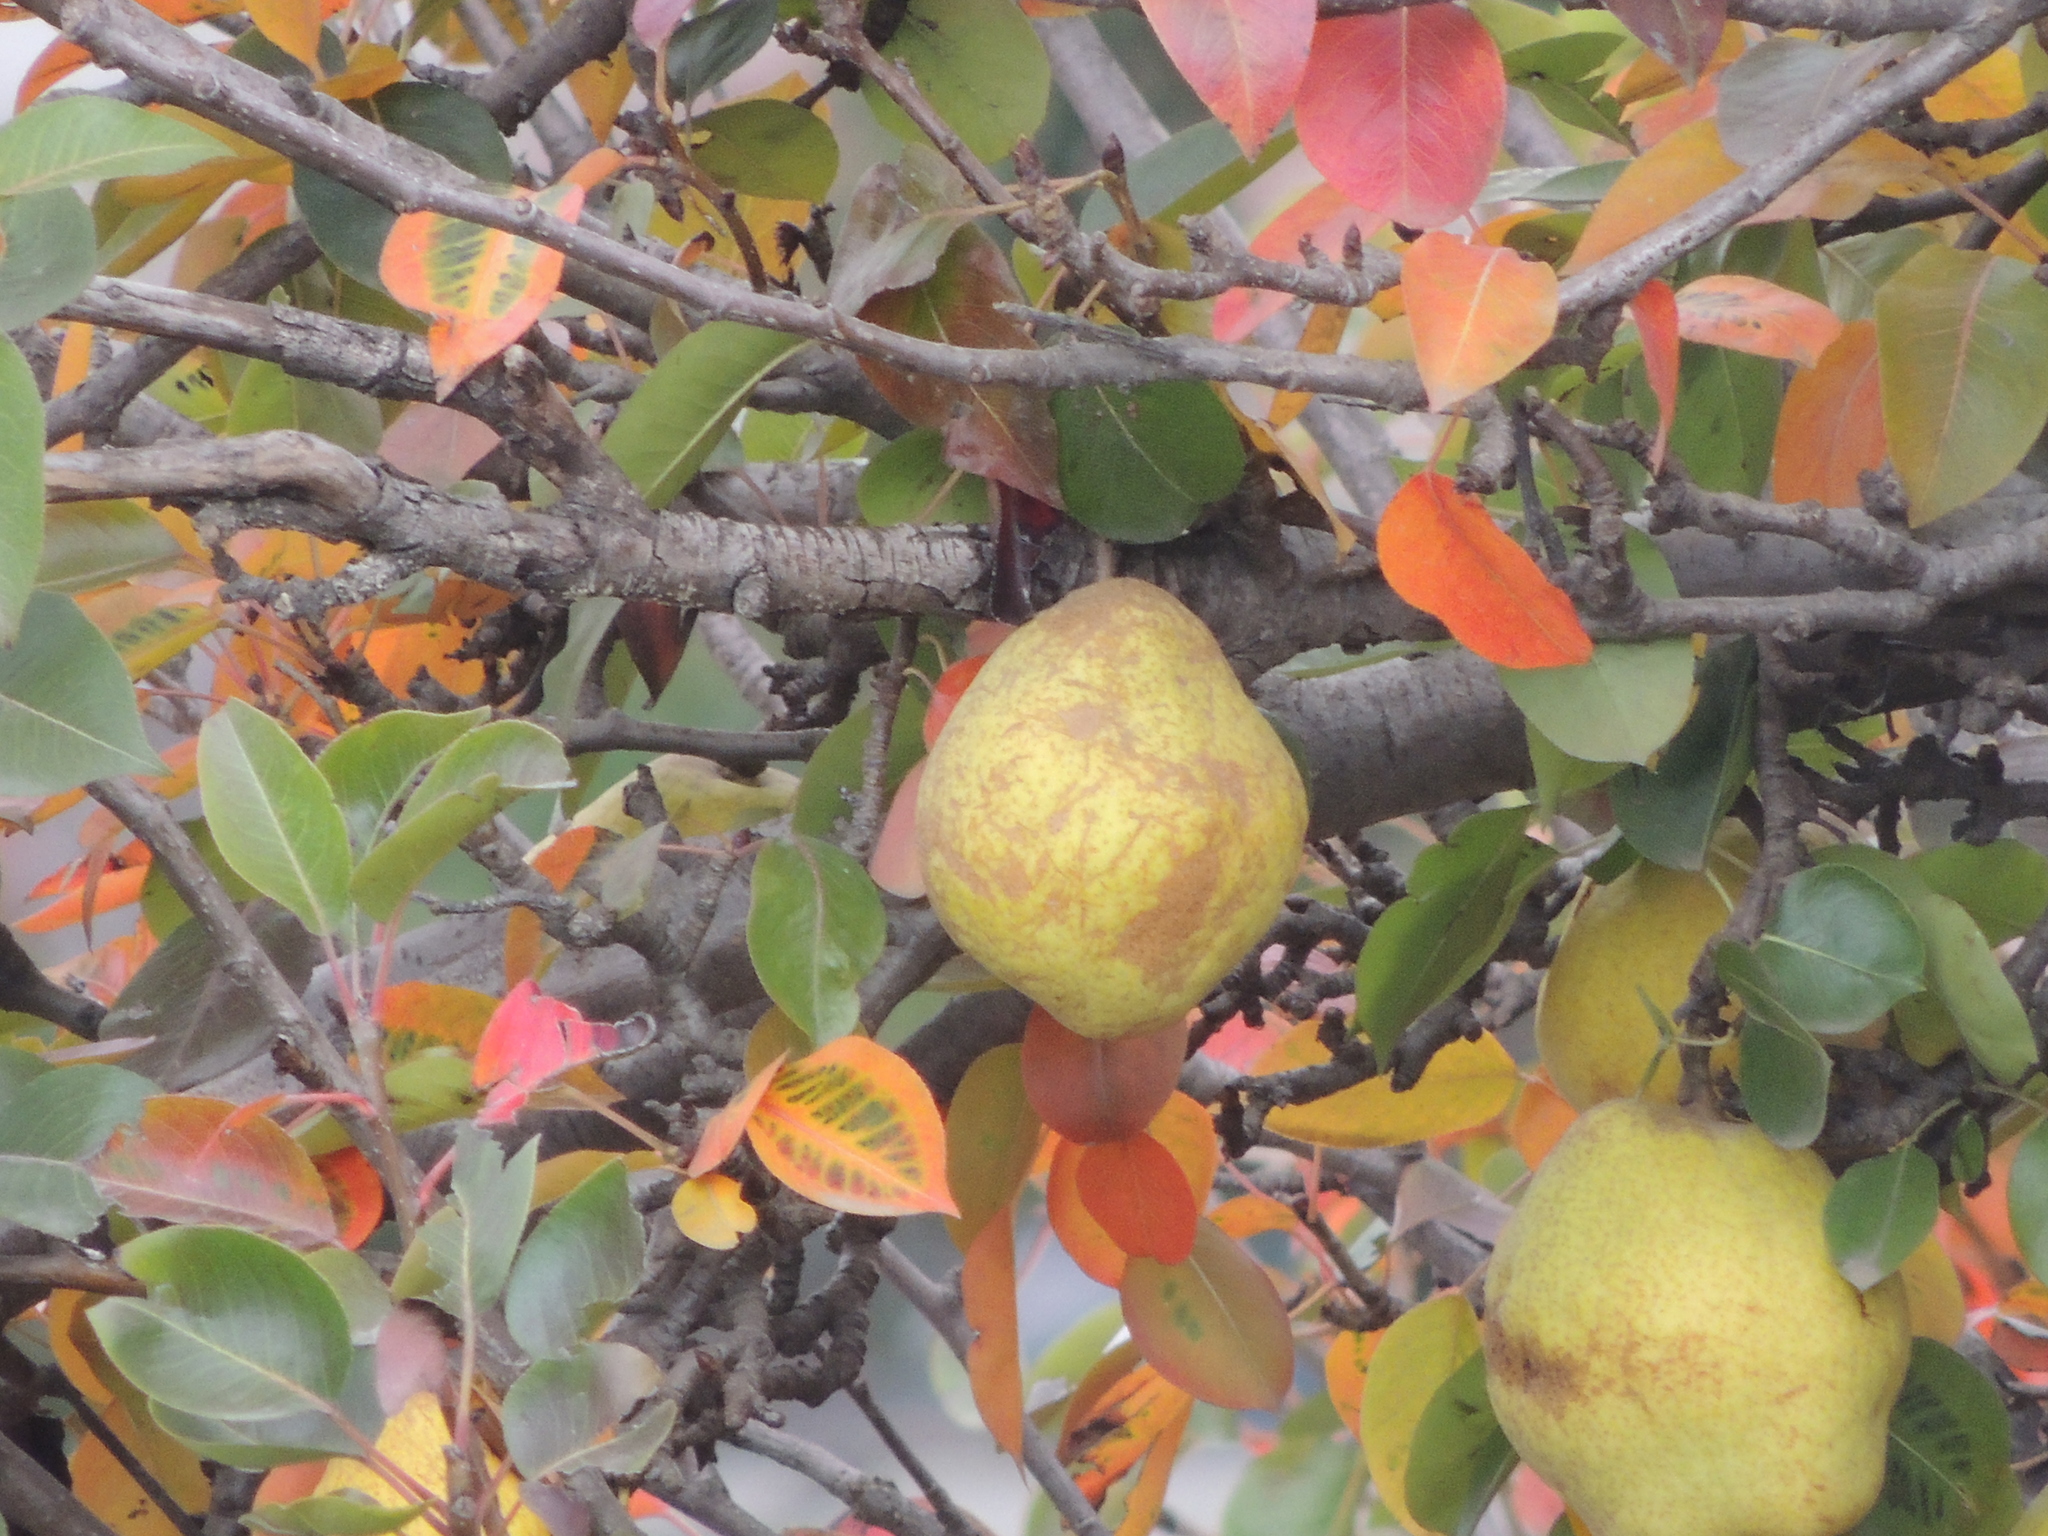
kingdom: Plantae
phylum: Tracheophyta
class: Magnoliopsida
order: Rosales
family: Rosaceae
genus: Pyrus
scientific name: Pyrus communis
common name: Pear
